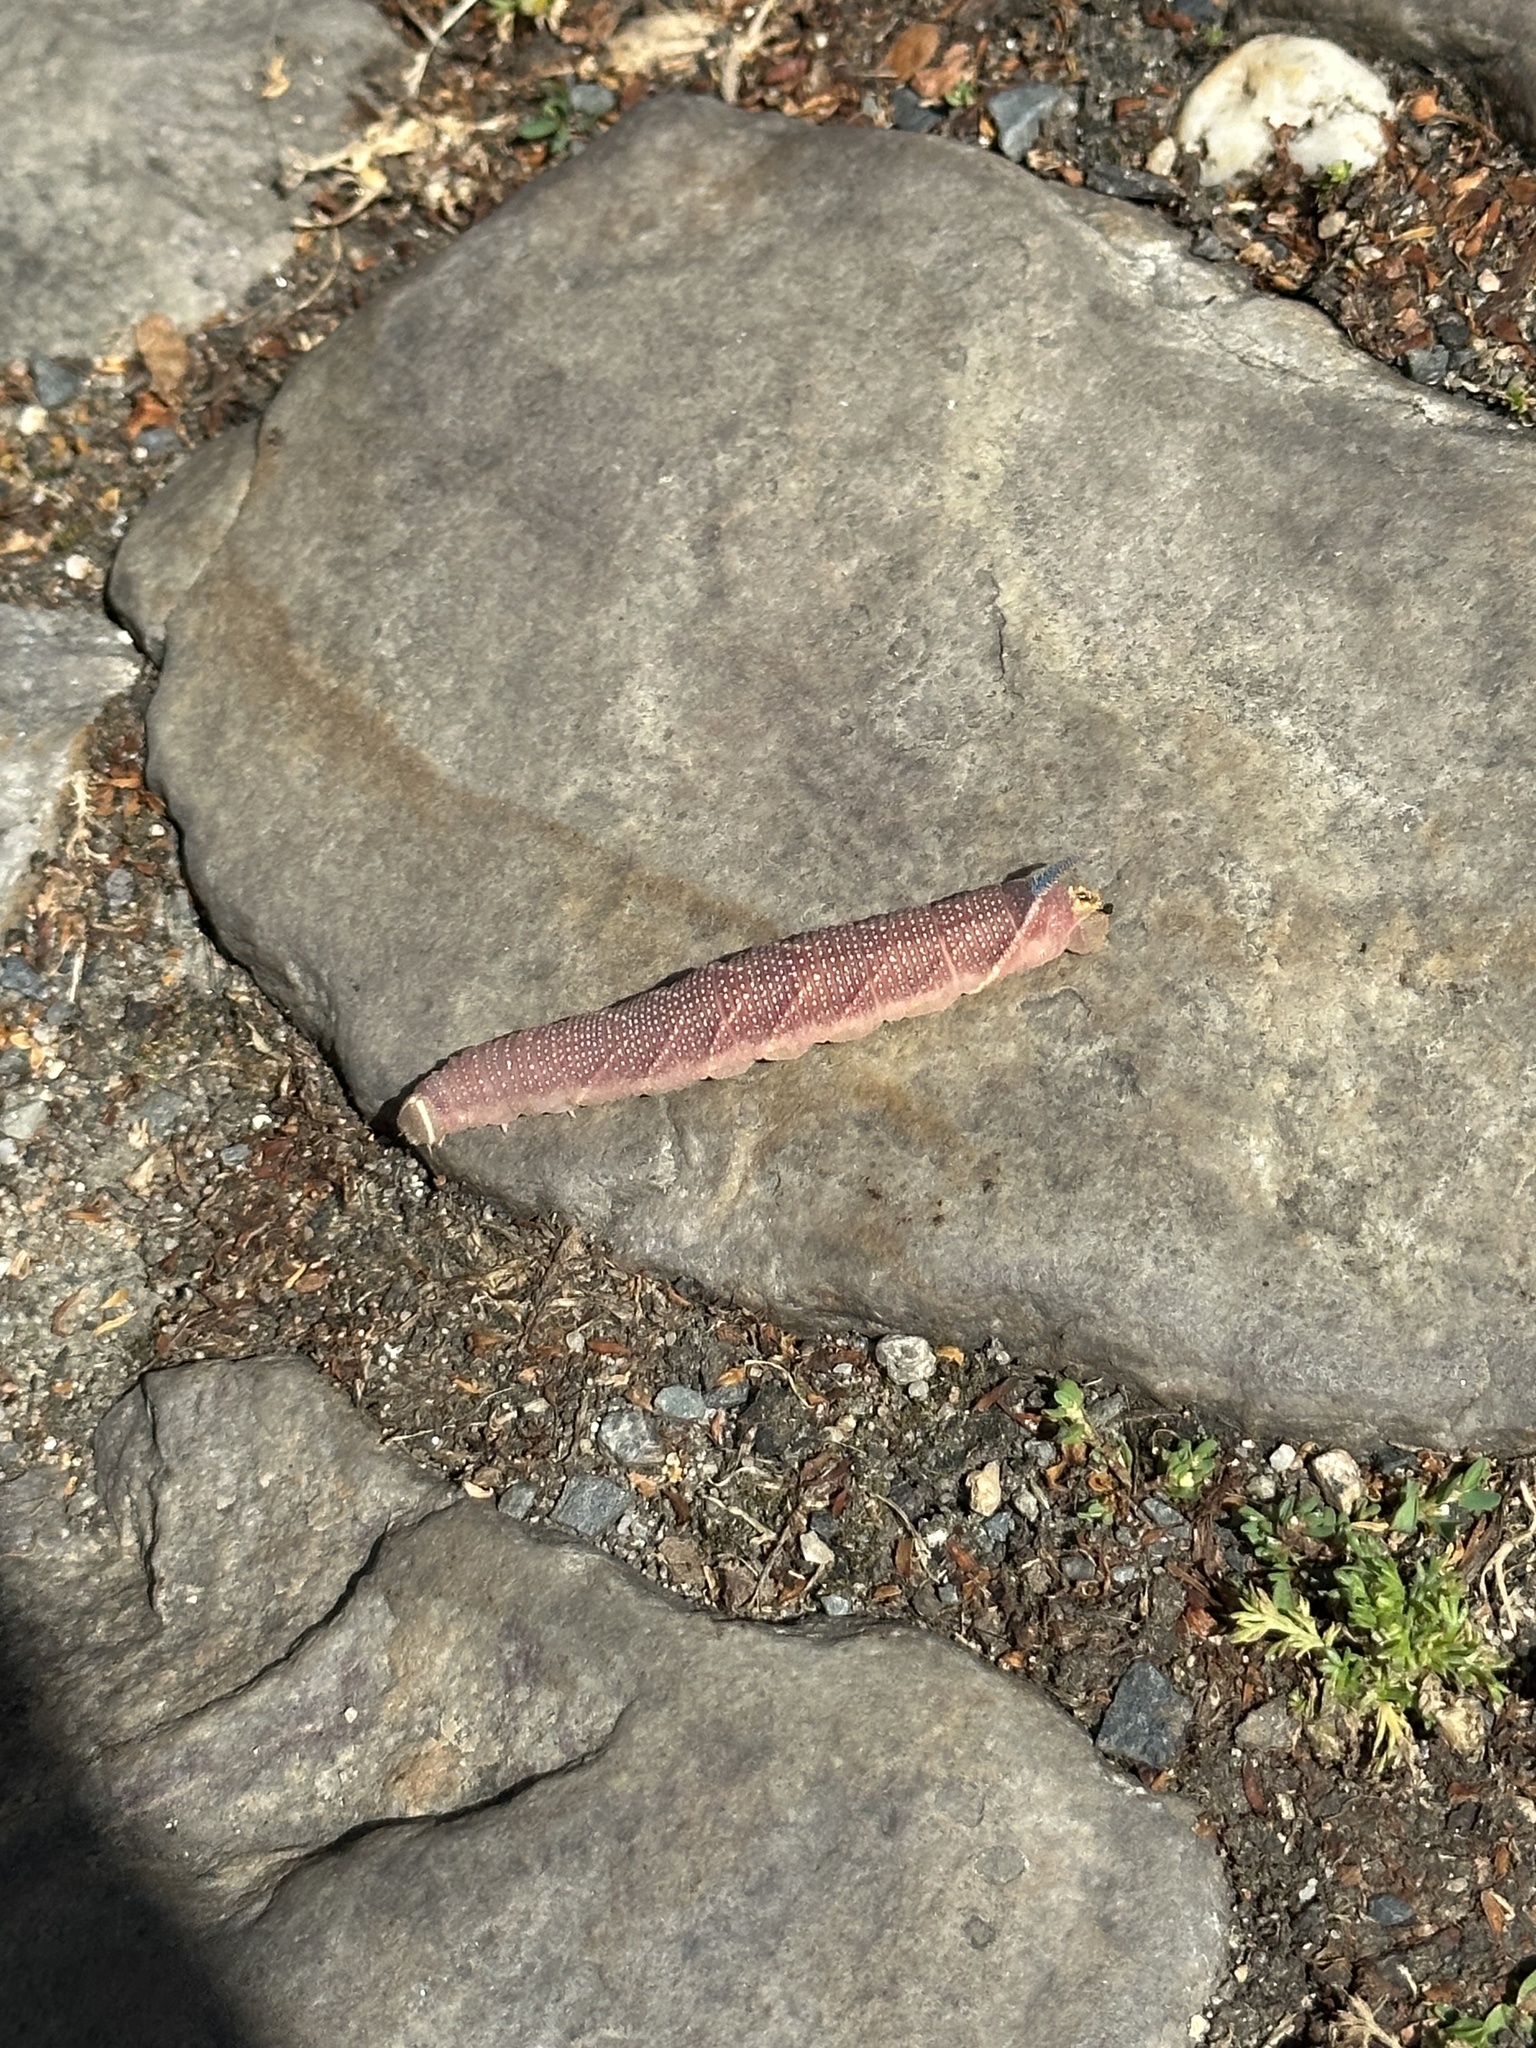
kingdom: Animalia
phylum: Arthropoda
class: Insecta
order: Lepidoptera
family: Sphingidae
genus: Mimas
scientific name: Mimas tiliae
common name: Lime hawk-moth
